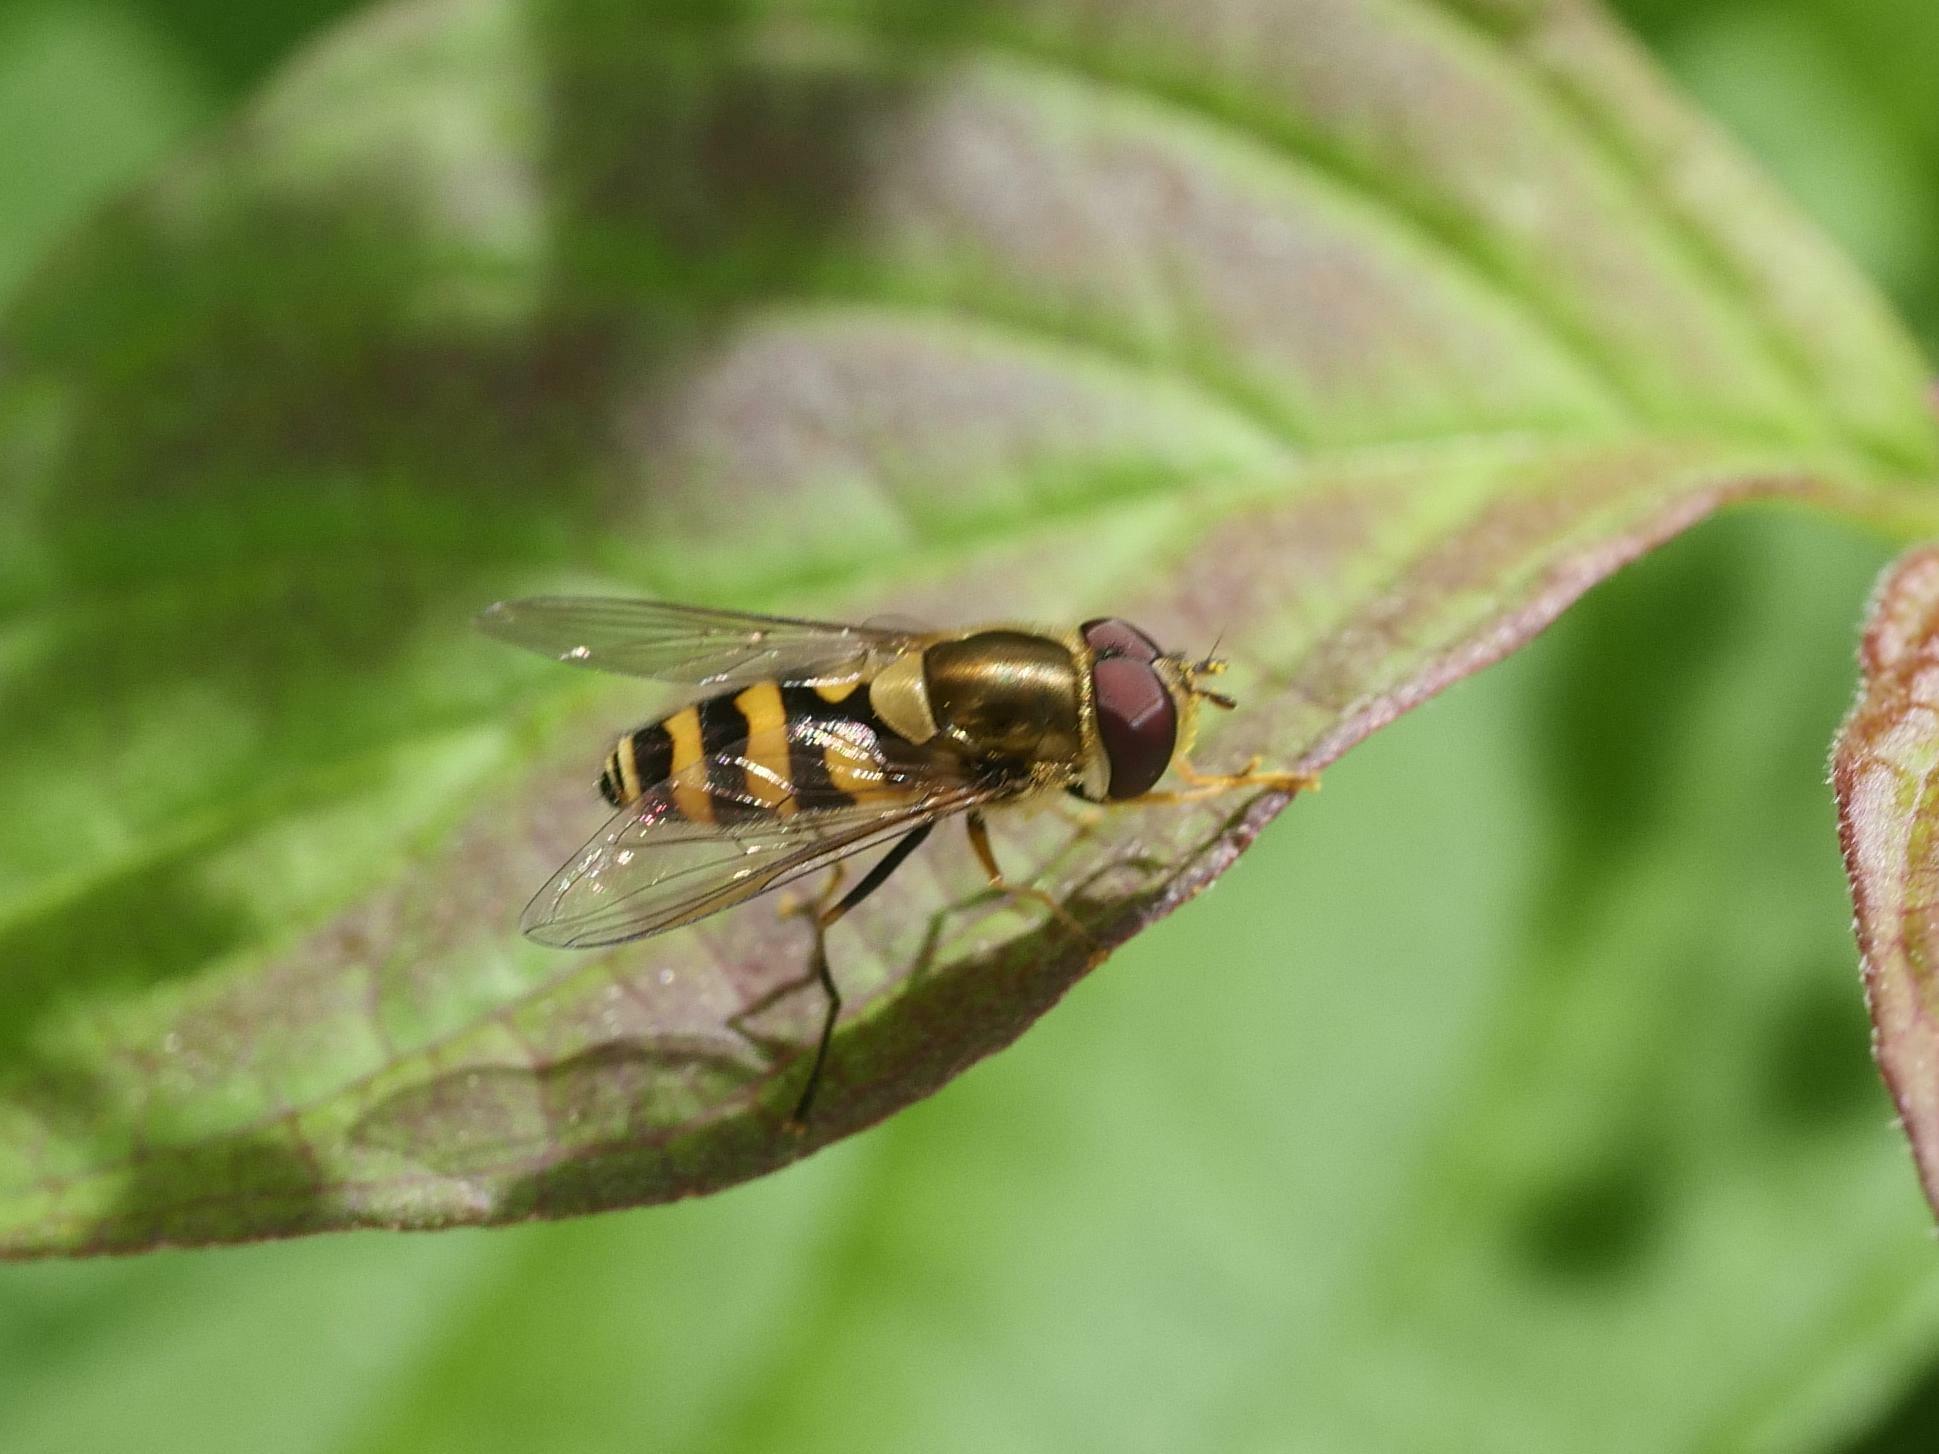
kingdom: Animalia
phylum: Arthropoda
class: Insecta
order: Diptera
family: Syrphidae
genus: Syrphus
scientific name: Syrphus
